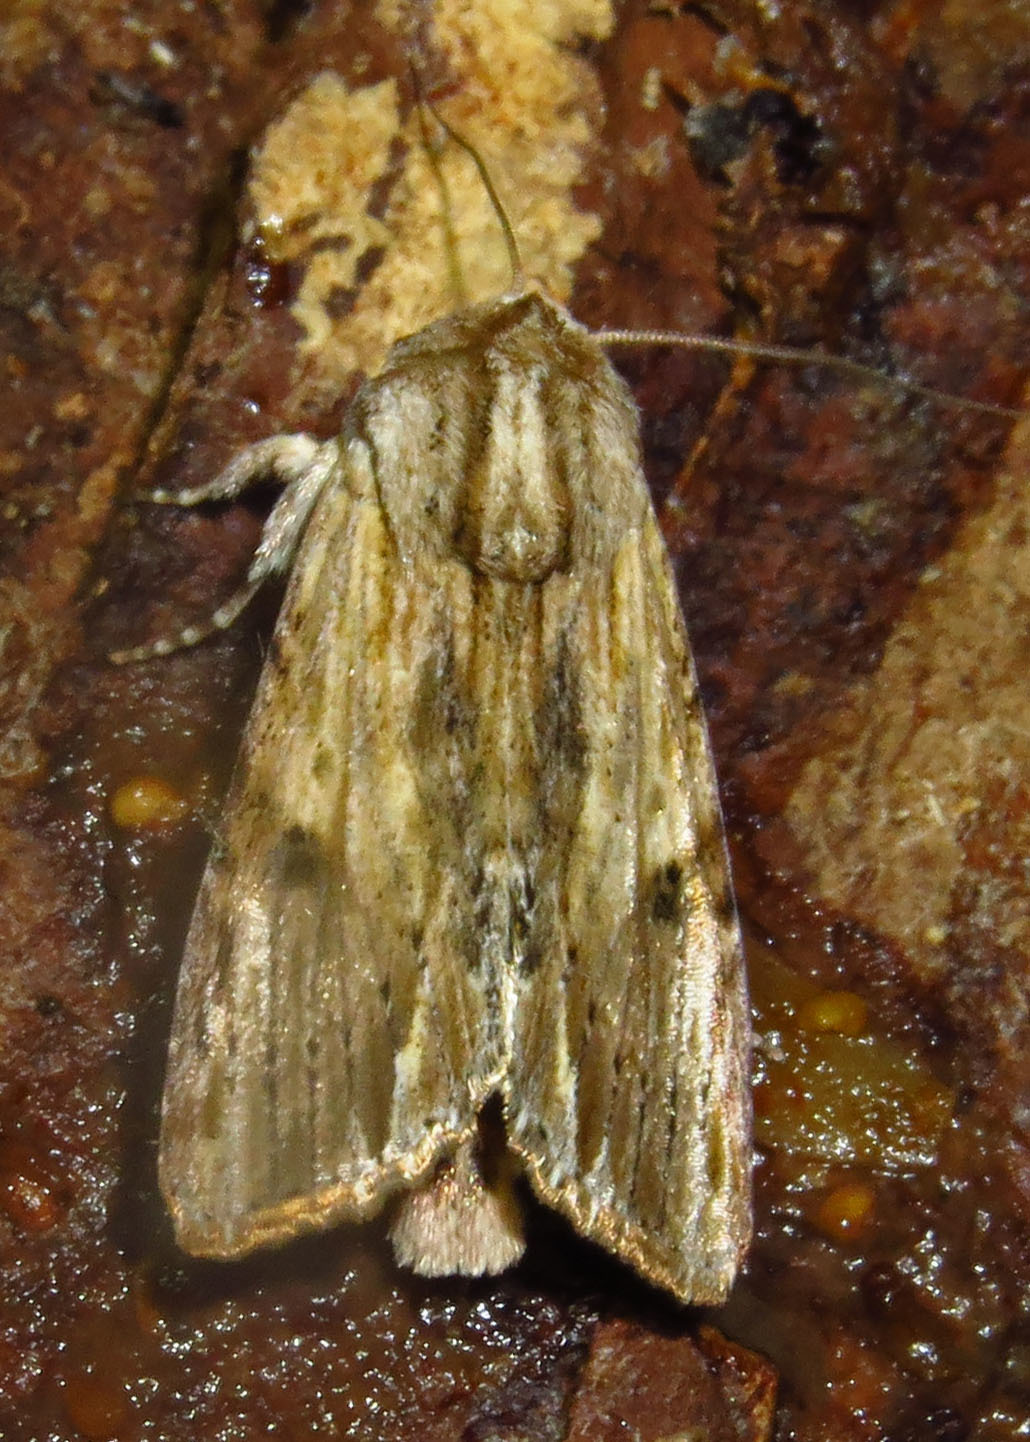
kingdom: Animalia
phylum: Arthropoda
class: Insecta
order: Lepidoptera
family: Noctuidae
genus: Spodoptera
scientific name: Spodoptera eridania
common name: Southern army worm
